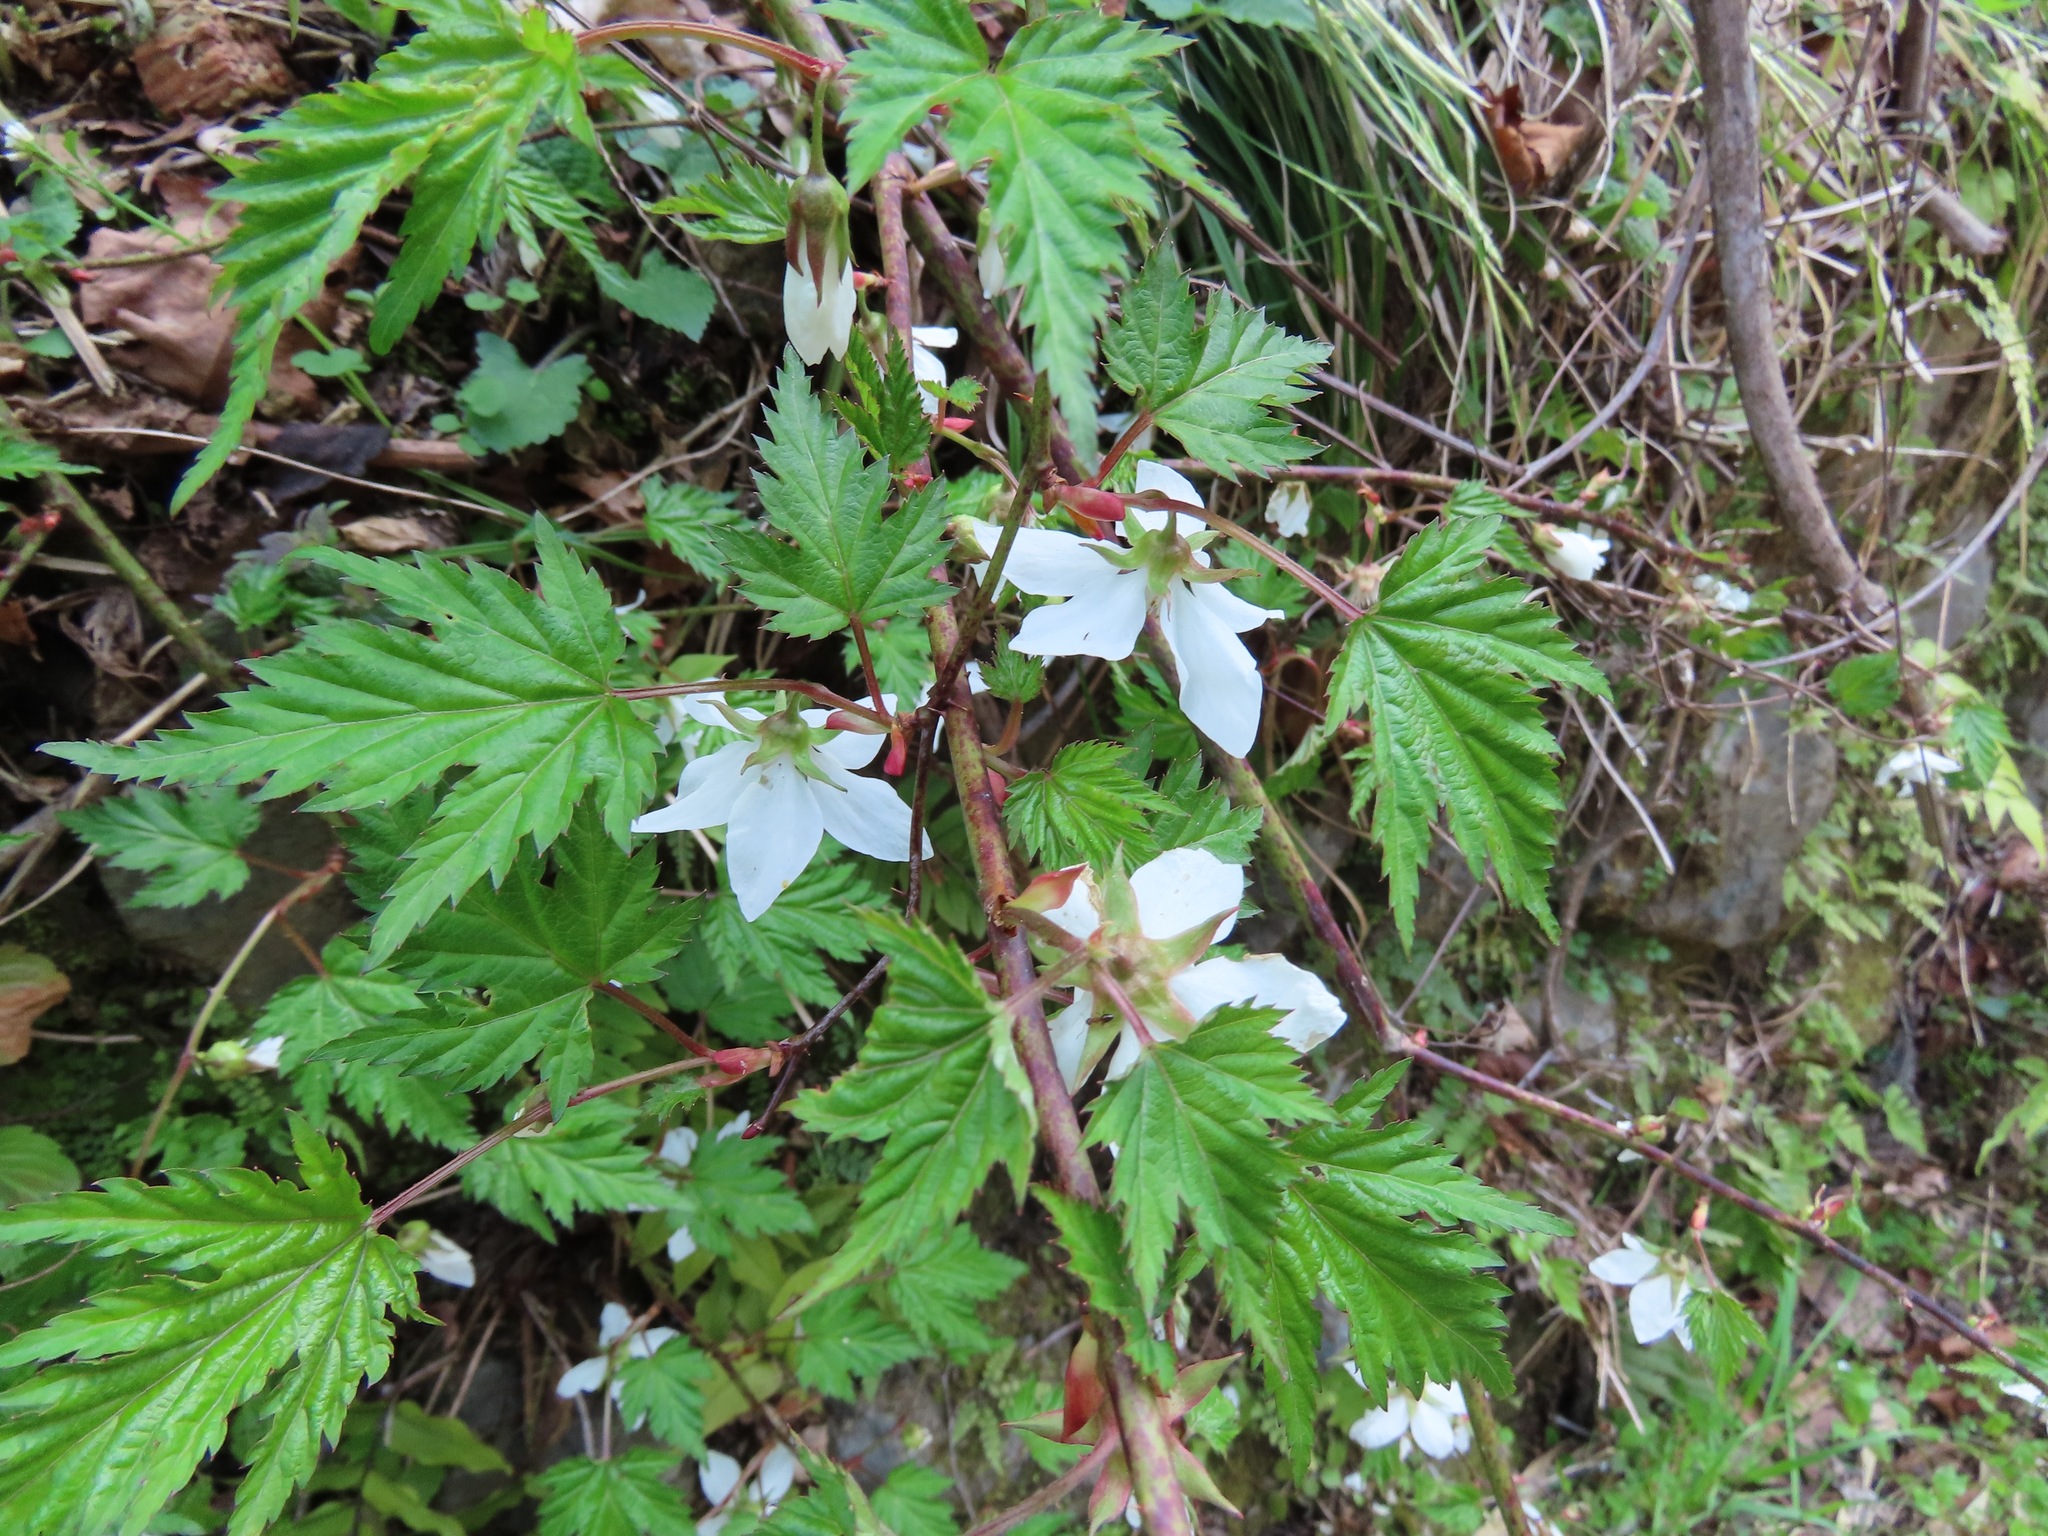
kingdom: Plantae
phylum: Tracheophyta
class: Magnoliopsida
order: Rosales
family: Rosaceae
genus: Rubus
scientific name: Rubus palmatus
